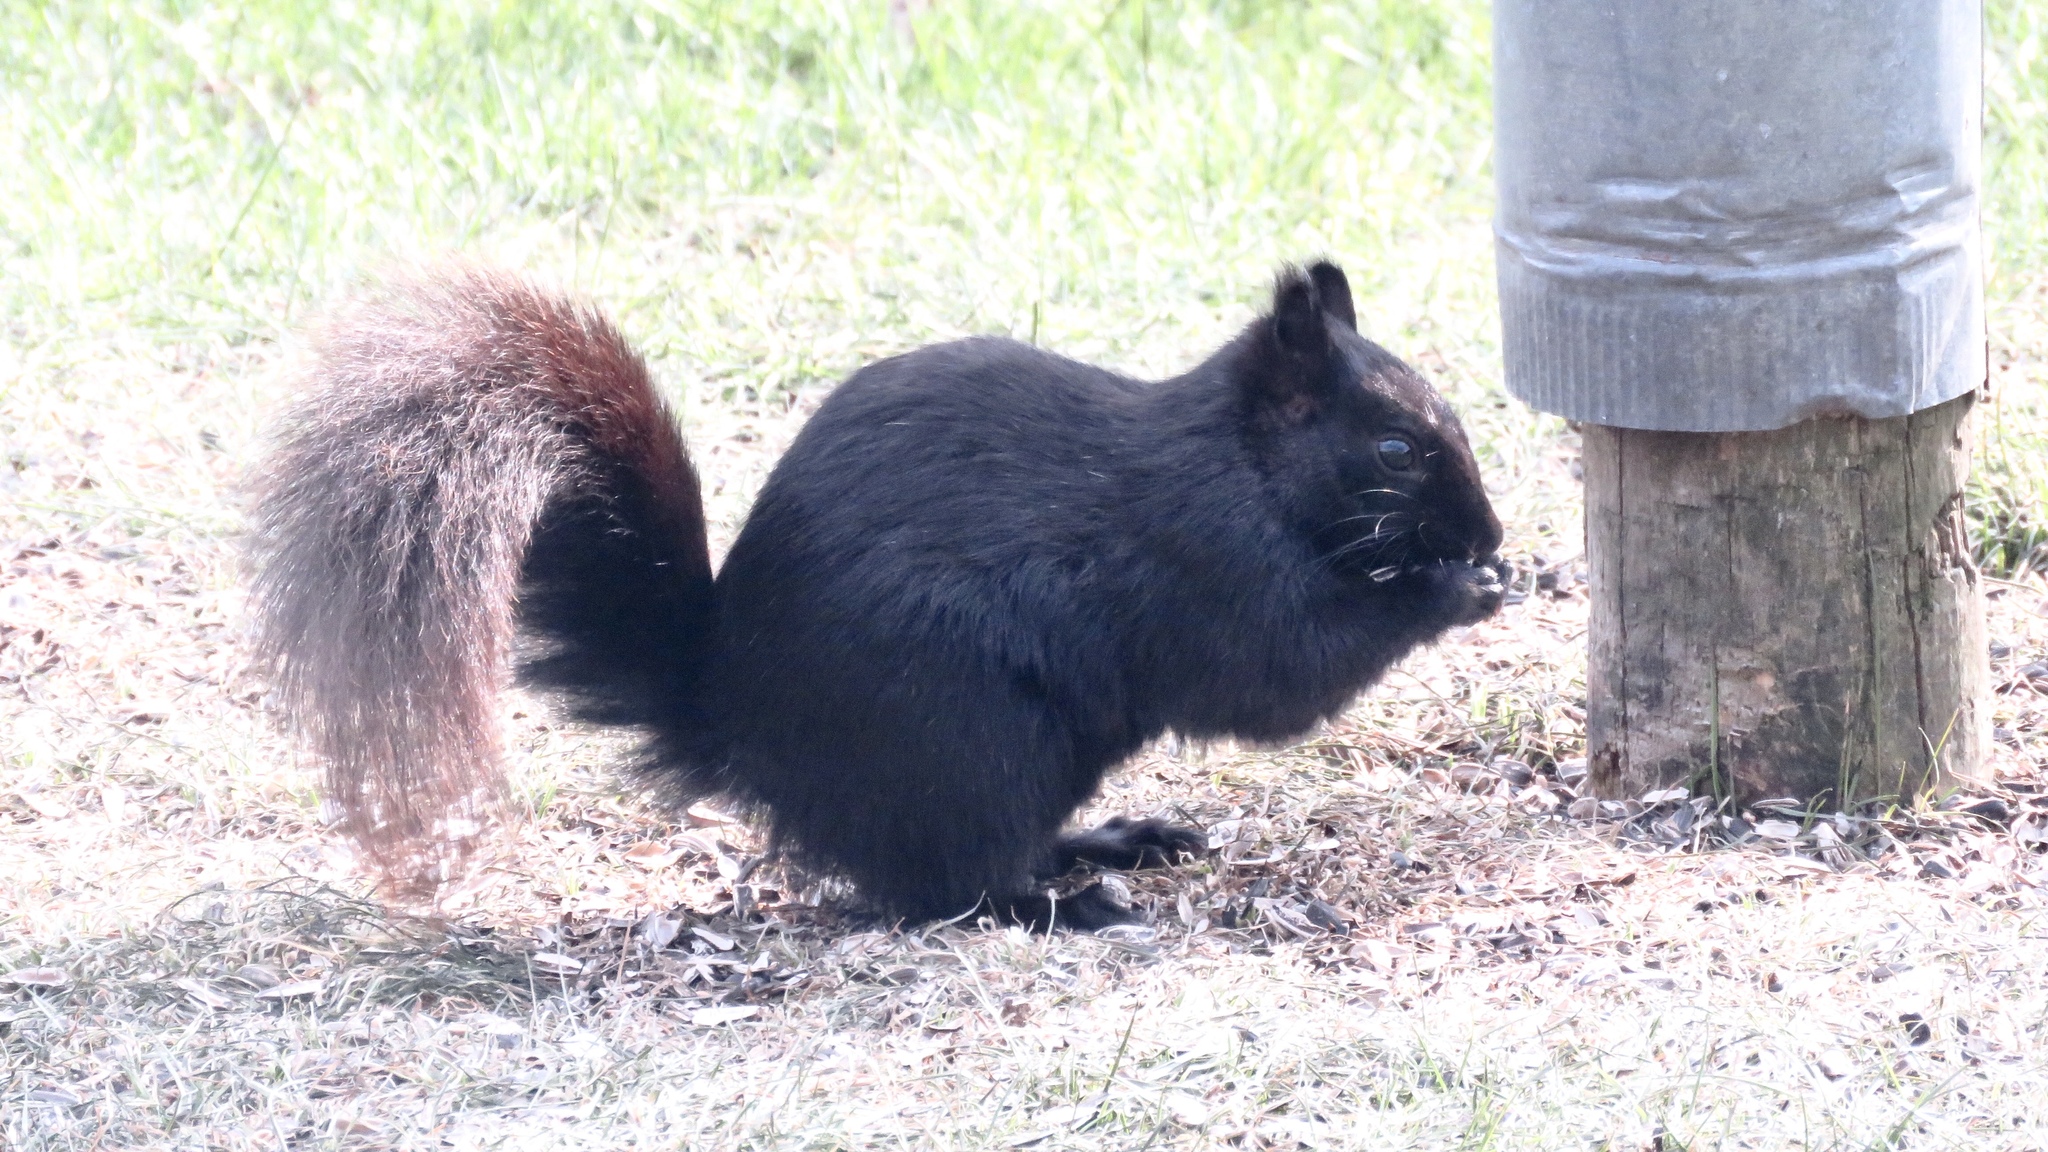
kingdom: Animalia
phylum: Chordata
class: Mammalia
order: Rodentia
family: Sciuridae
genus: Sciurus
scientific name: Sciurus carolinensis
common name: Eastern gray squirrel
